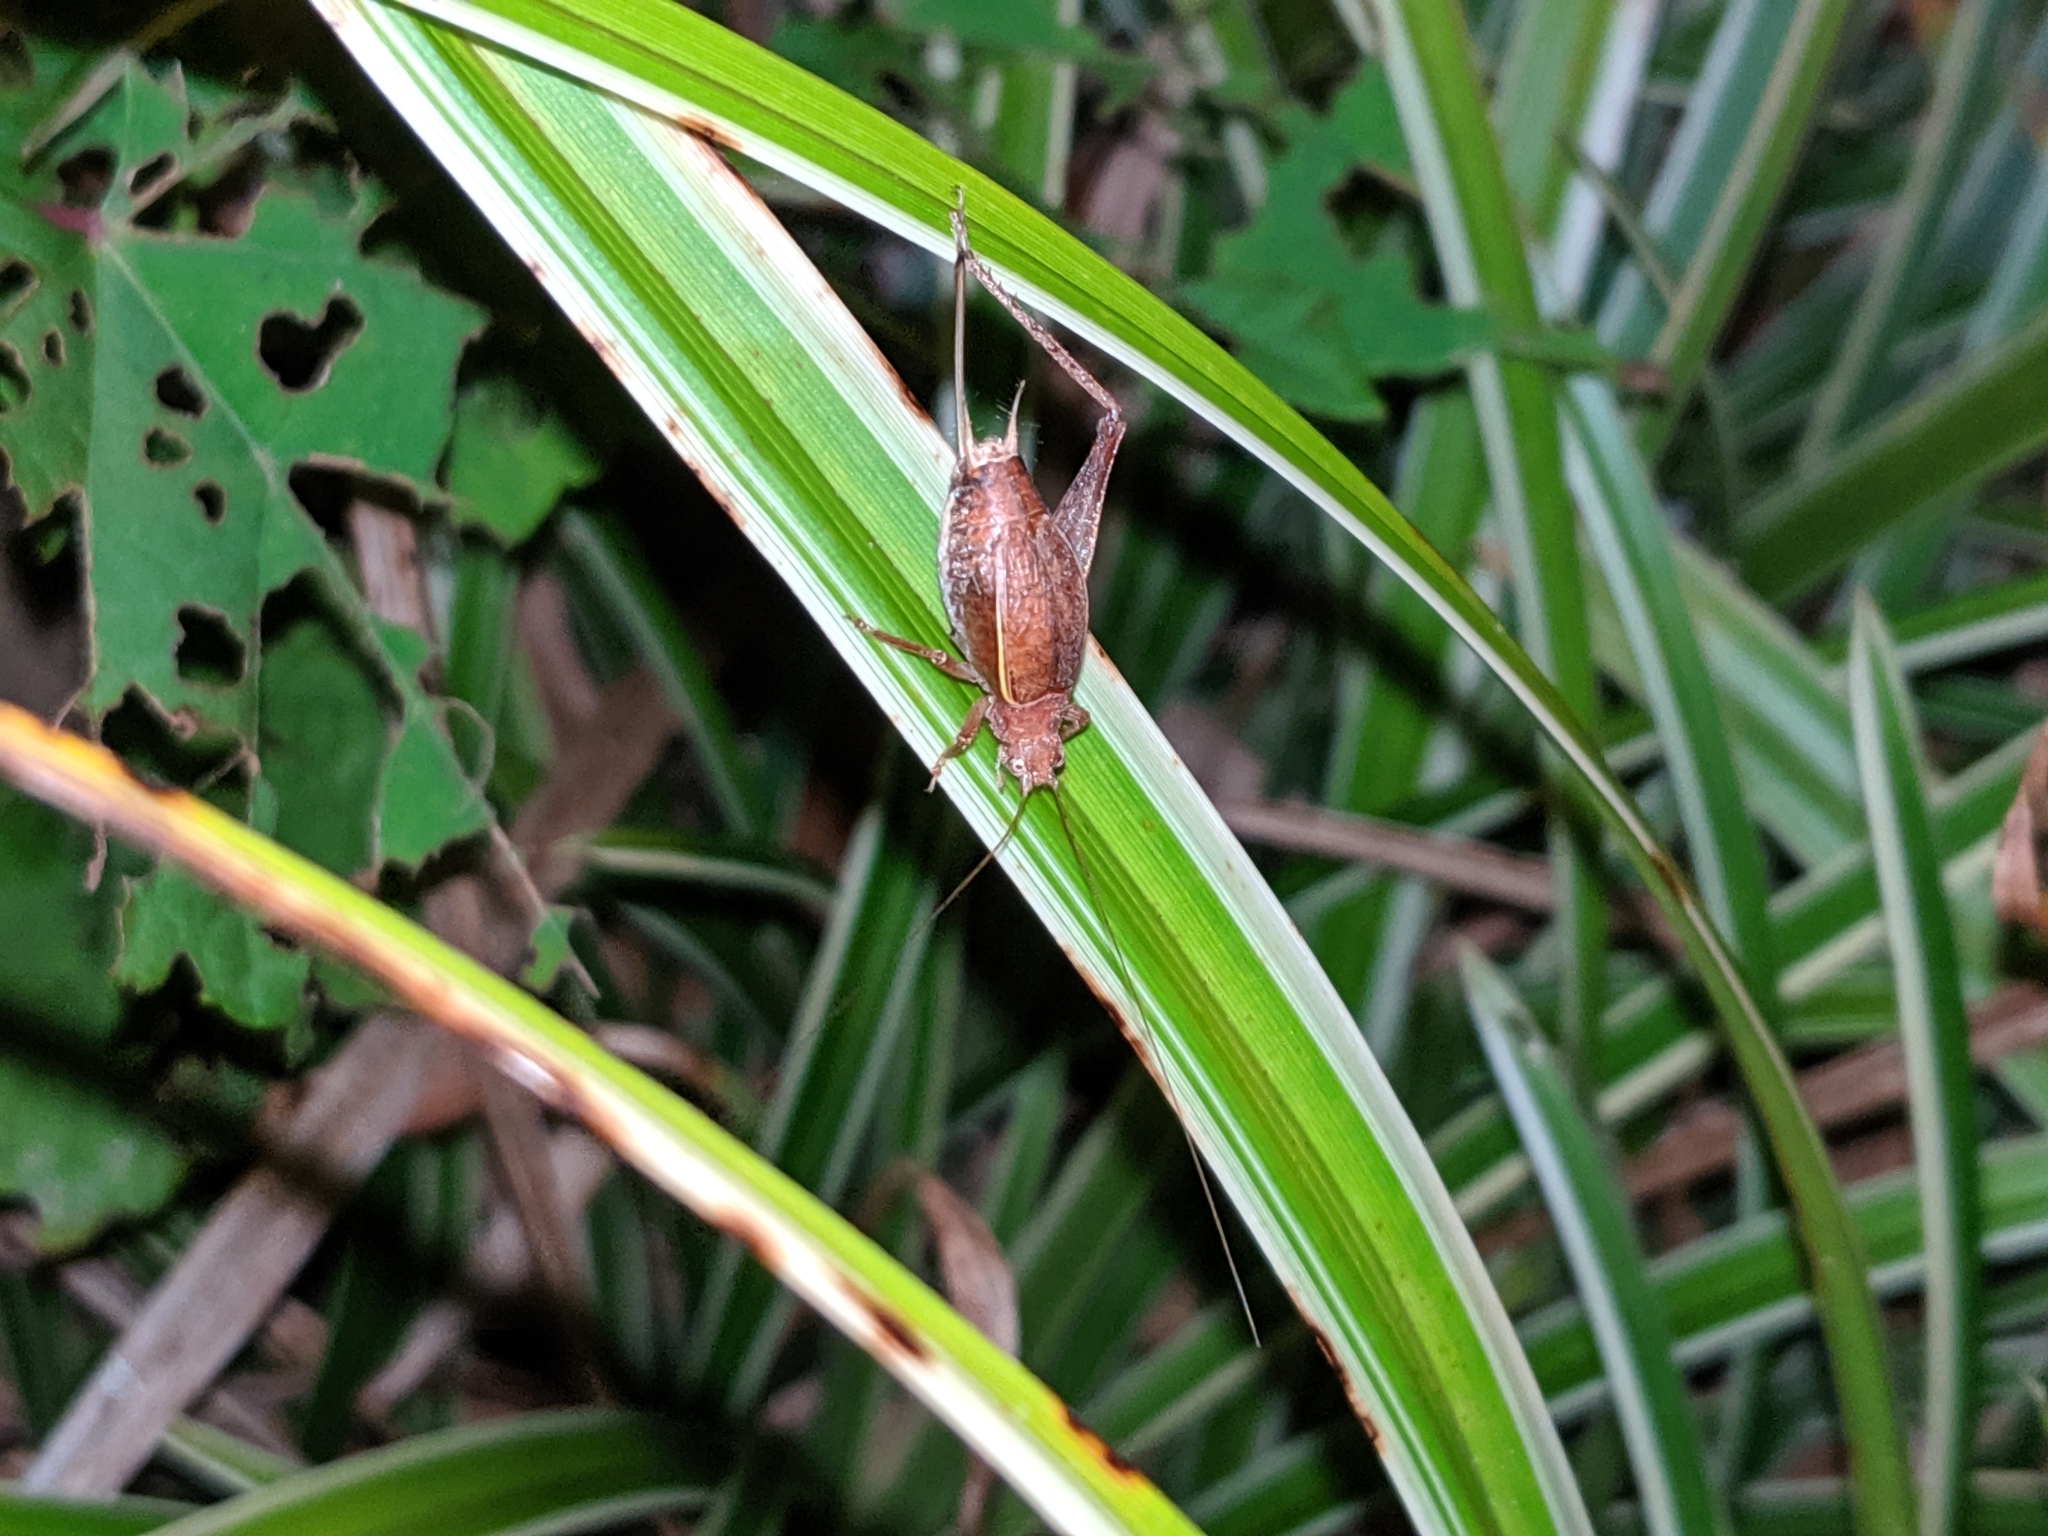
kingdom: Animalia
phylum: Arthropoda
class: Insecta
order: Orthoptera
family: Gryllidae
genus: Hapithus
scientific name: Hapithus agitator
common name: Restless bush cricket
